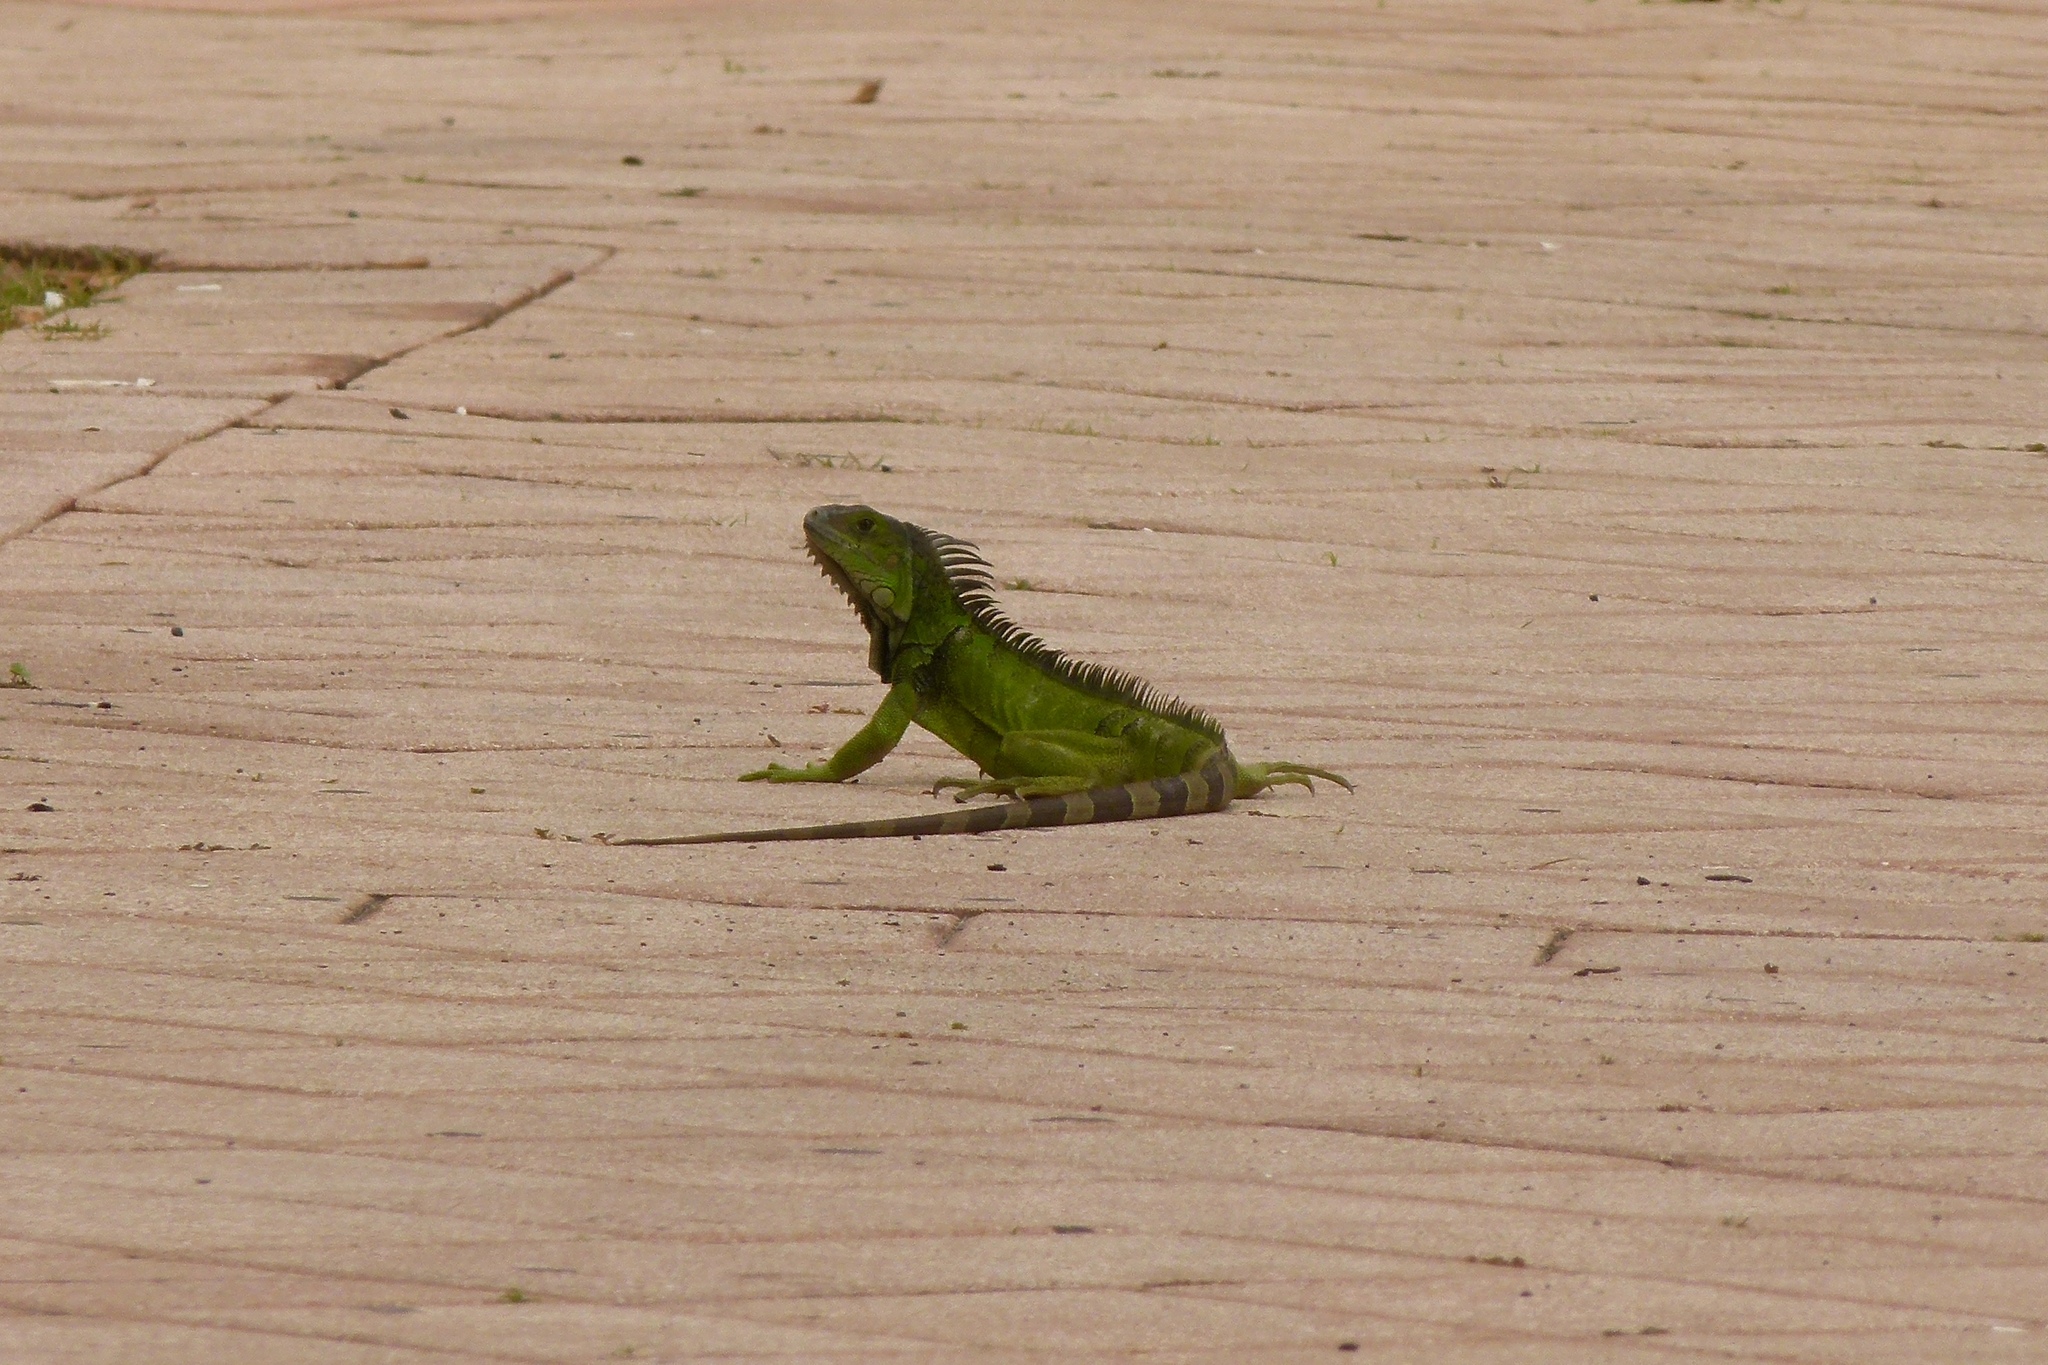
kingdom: Animalia
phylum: Chordata
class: Squamata
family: Iguanidae
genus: Iguana
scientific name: Iguana iguana
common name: Green iguana
